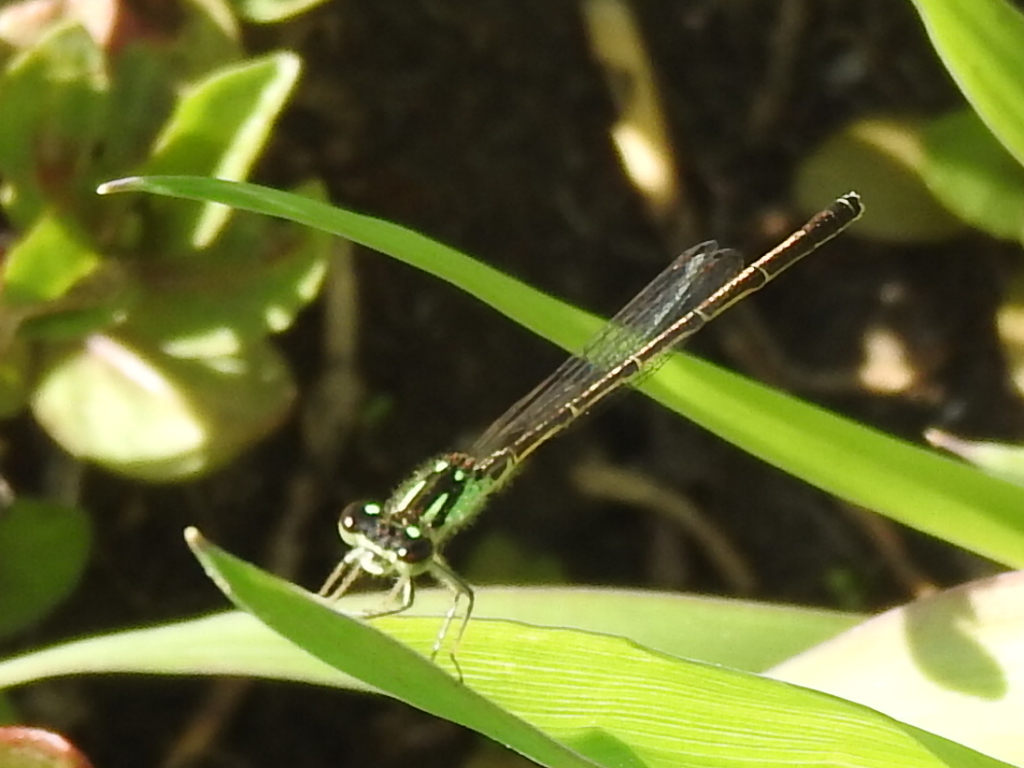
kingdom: Animalia
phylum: Arthropoda
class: Insecta
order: Odonata
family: Coenagrionidae
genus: Ischnura
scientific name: Ischnura posita
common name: Fragile forktail
